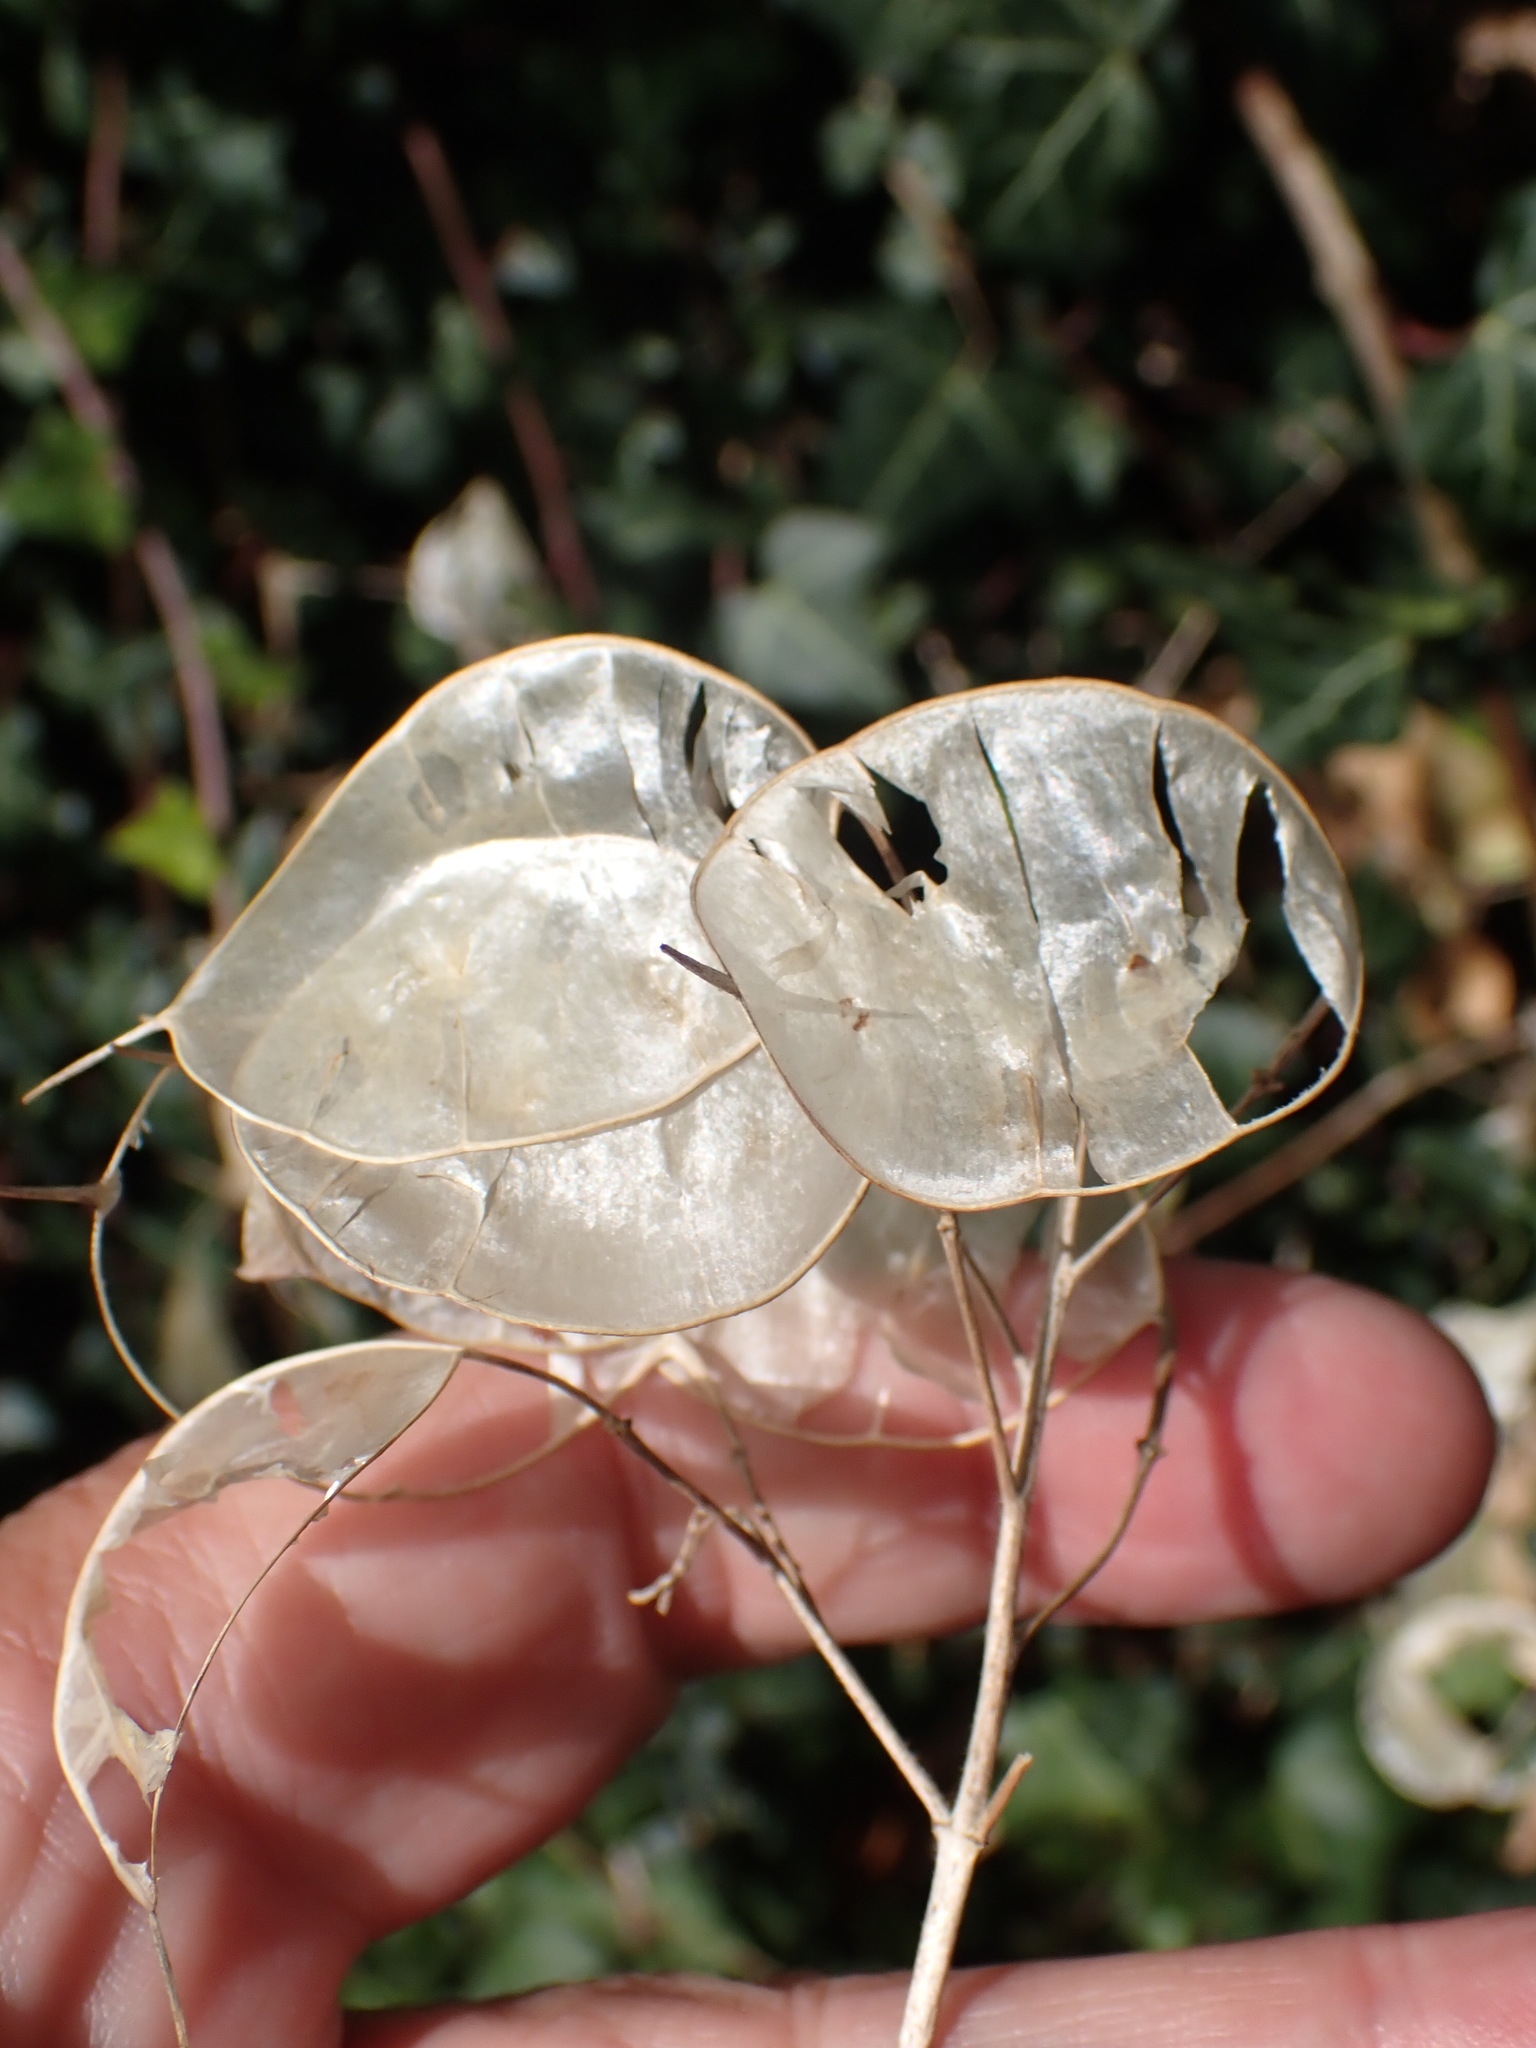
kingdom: Plantae
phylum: Tracheophyta
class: Magnoliopsida
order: Brassicales
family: Brassicaceae
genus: Lunaria
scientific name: Lunaria annua
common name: Honesty
